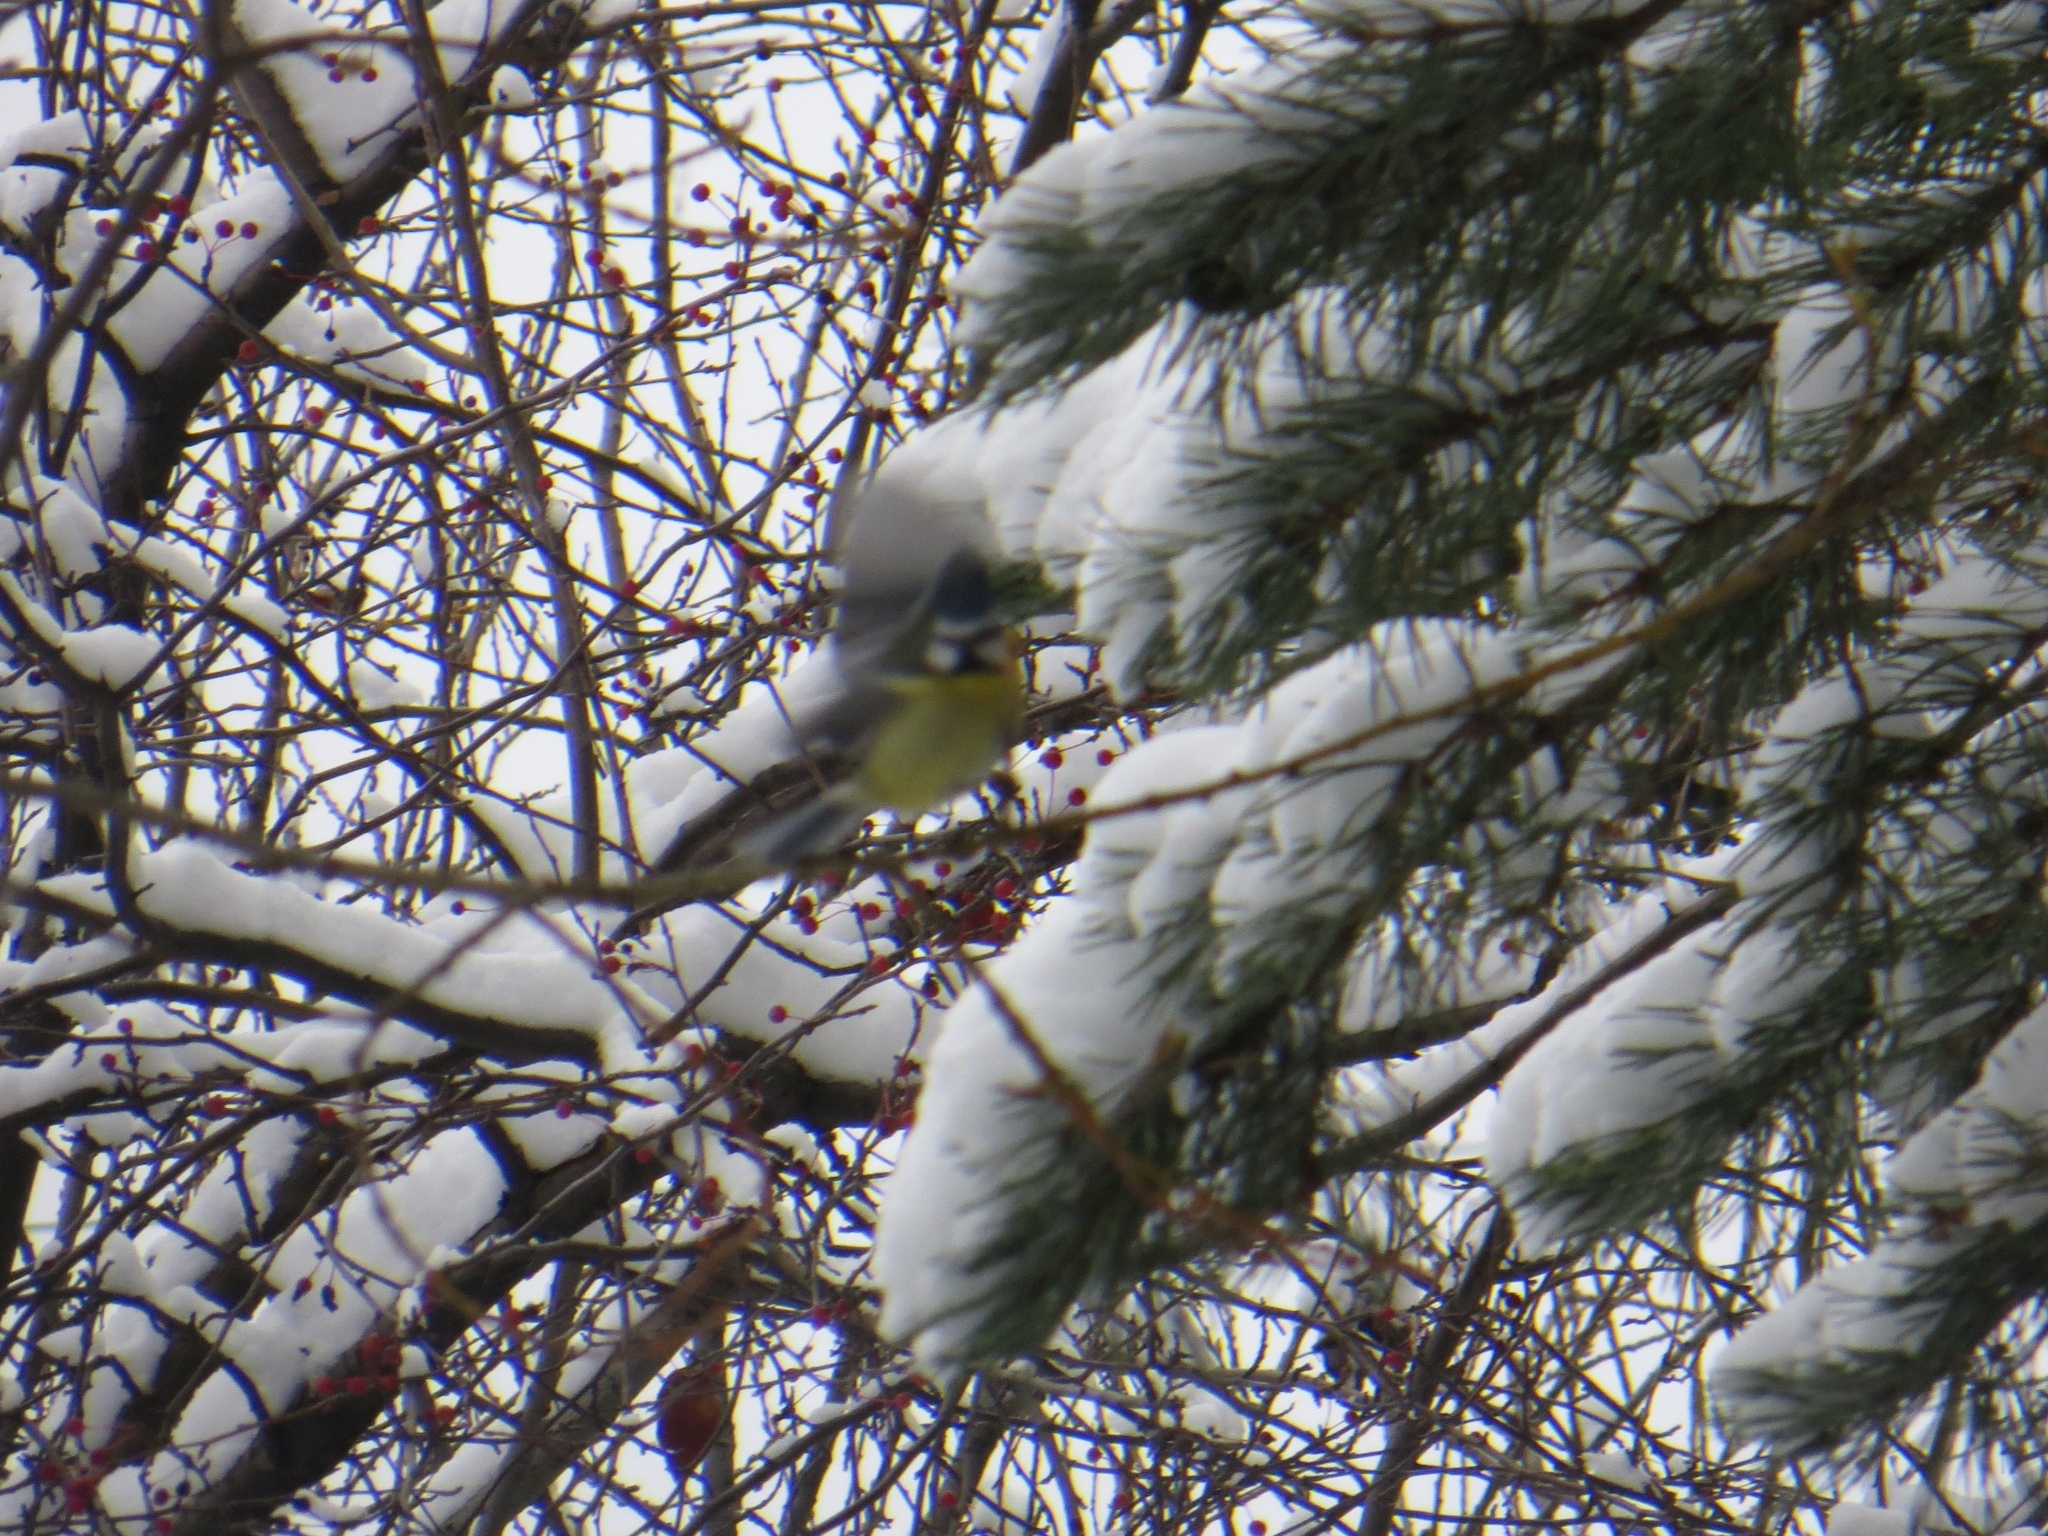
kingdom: Animalia
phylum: Chordata
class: Aves
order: Passeriformes
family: Paridae
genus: Cyanistes
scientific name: Cyanistes caeruleus
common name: Eurasian blue tit
